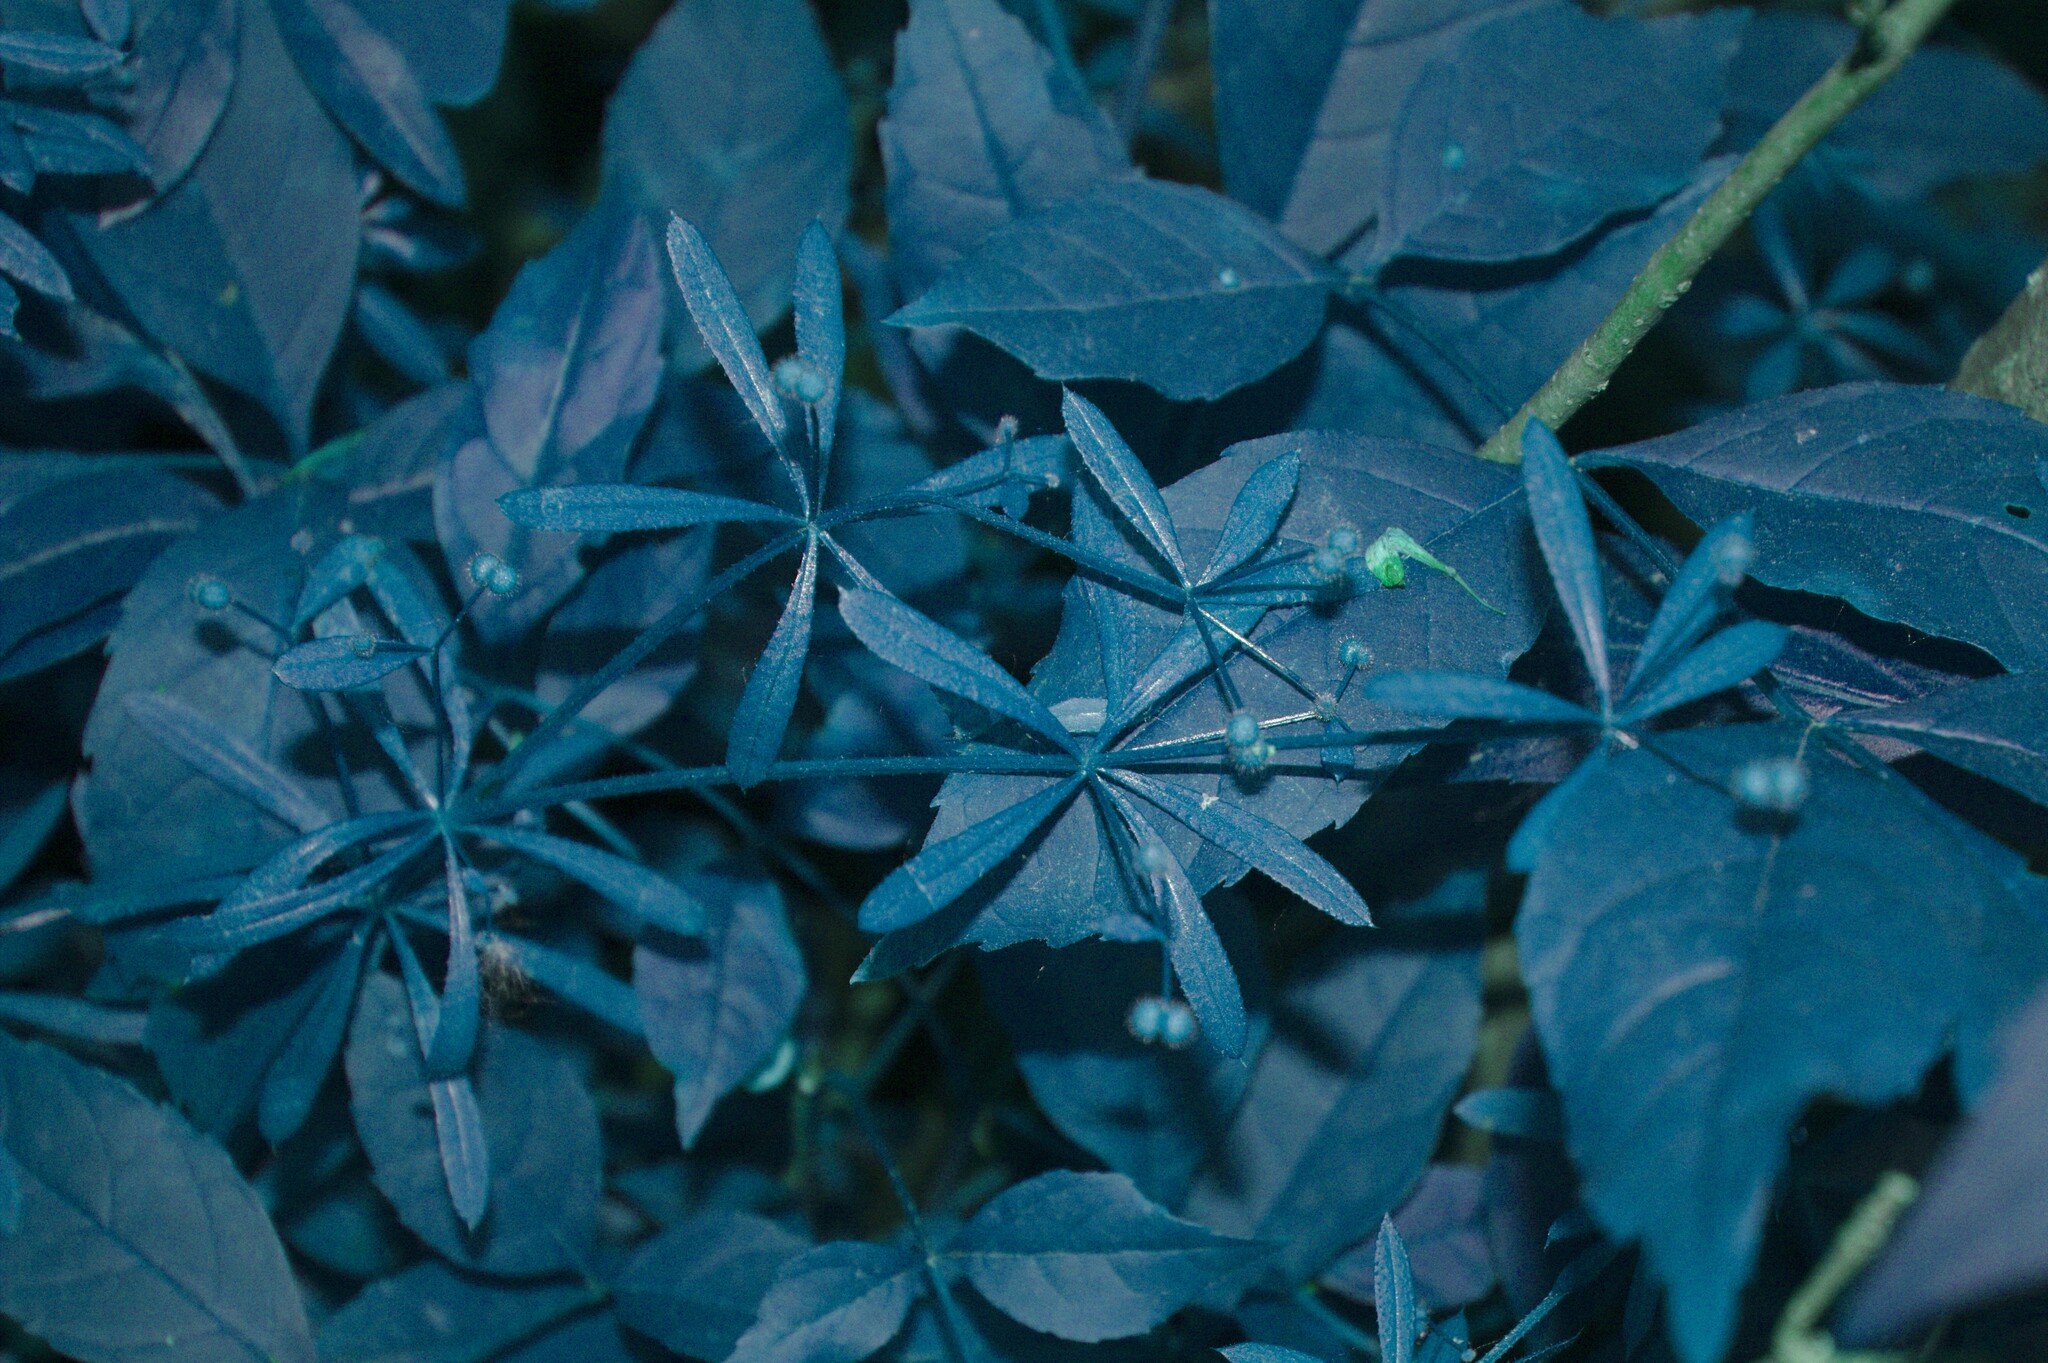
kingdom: Plantae
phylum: Tracheophyta
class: Magnoliopsida
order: Gentianales
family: Rubiaceae
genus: Galium
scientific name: Galium aparine
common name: Cleavers
